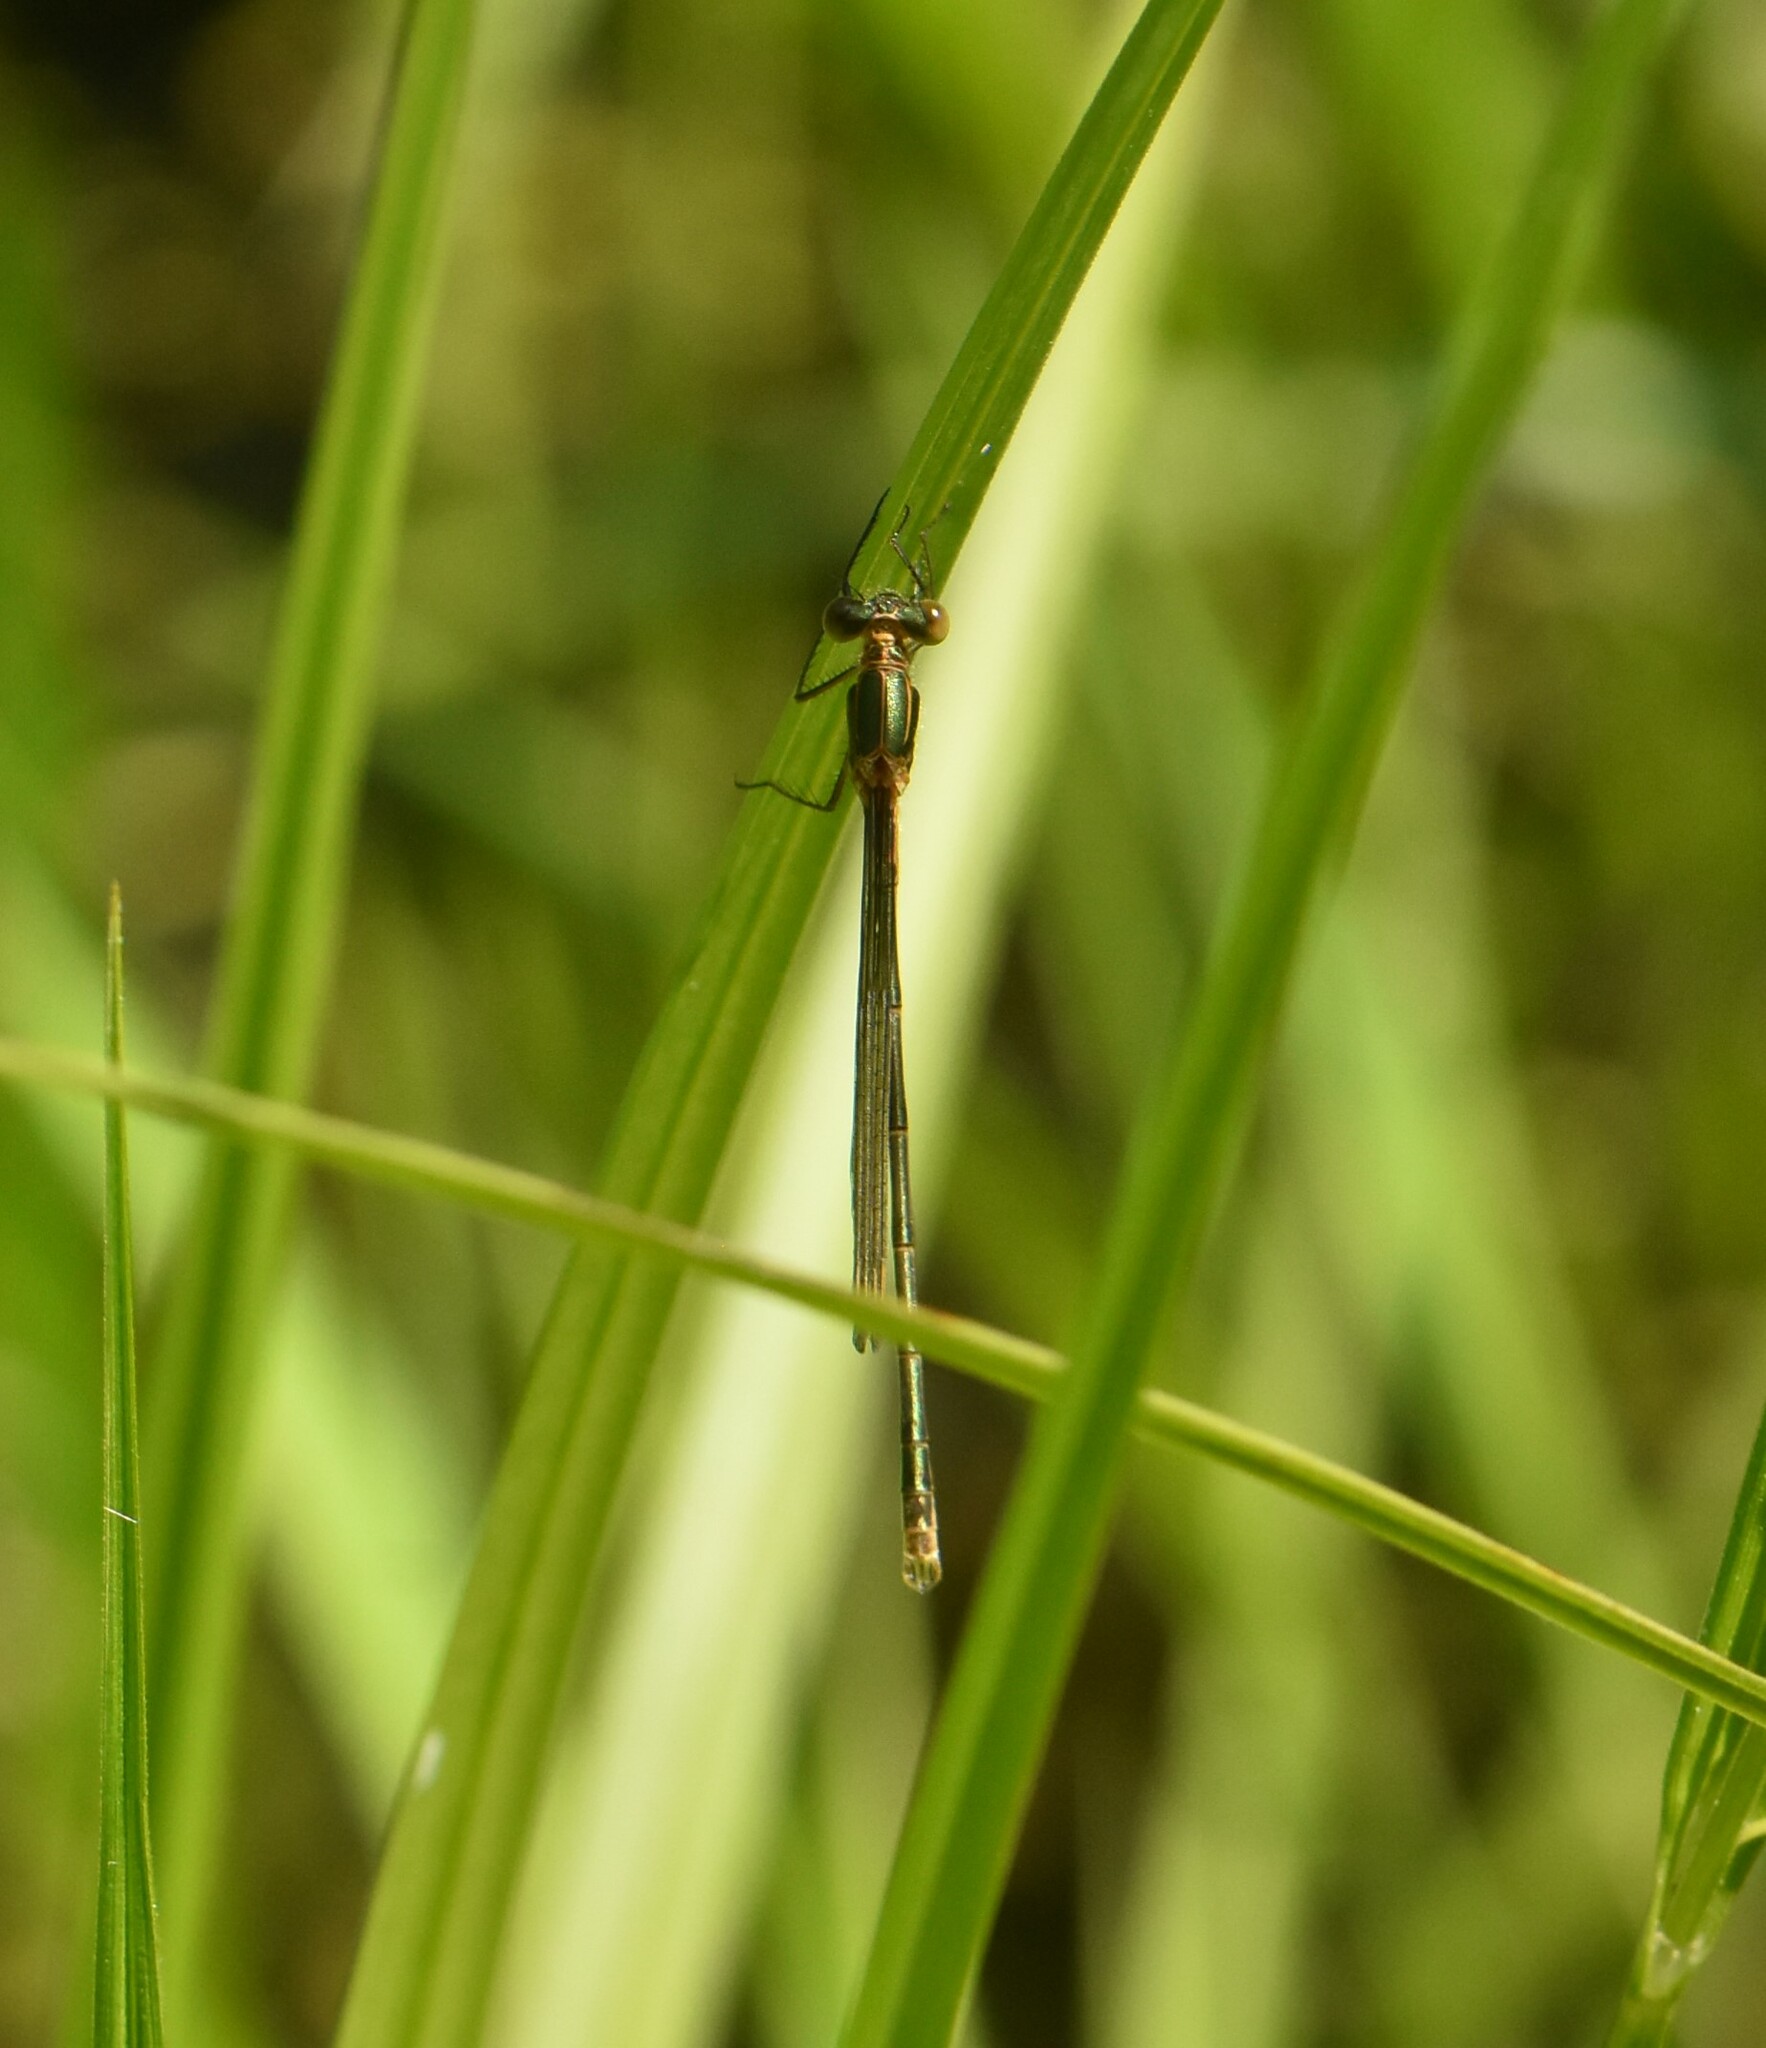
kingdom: Animalia
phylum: Arthropoda
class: Insecta
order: Odonata
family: Lestidae
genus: Lestes
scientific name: Lestes sponsa
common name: Common spreadwing
